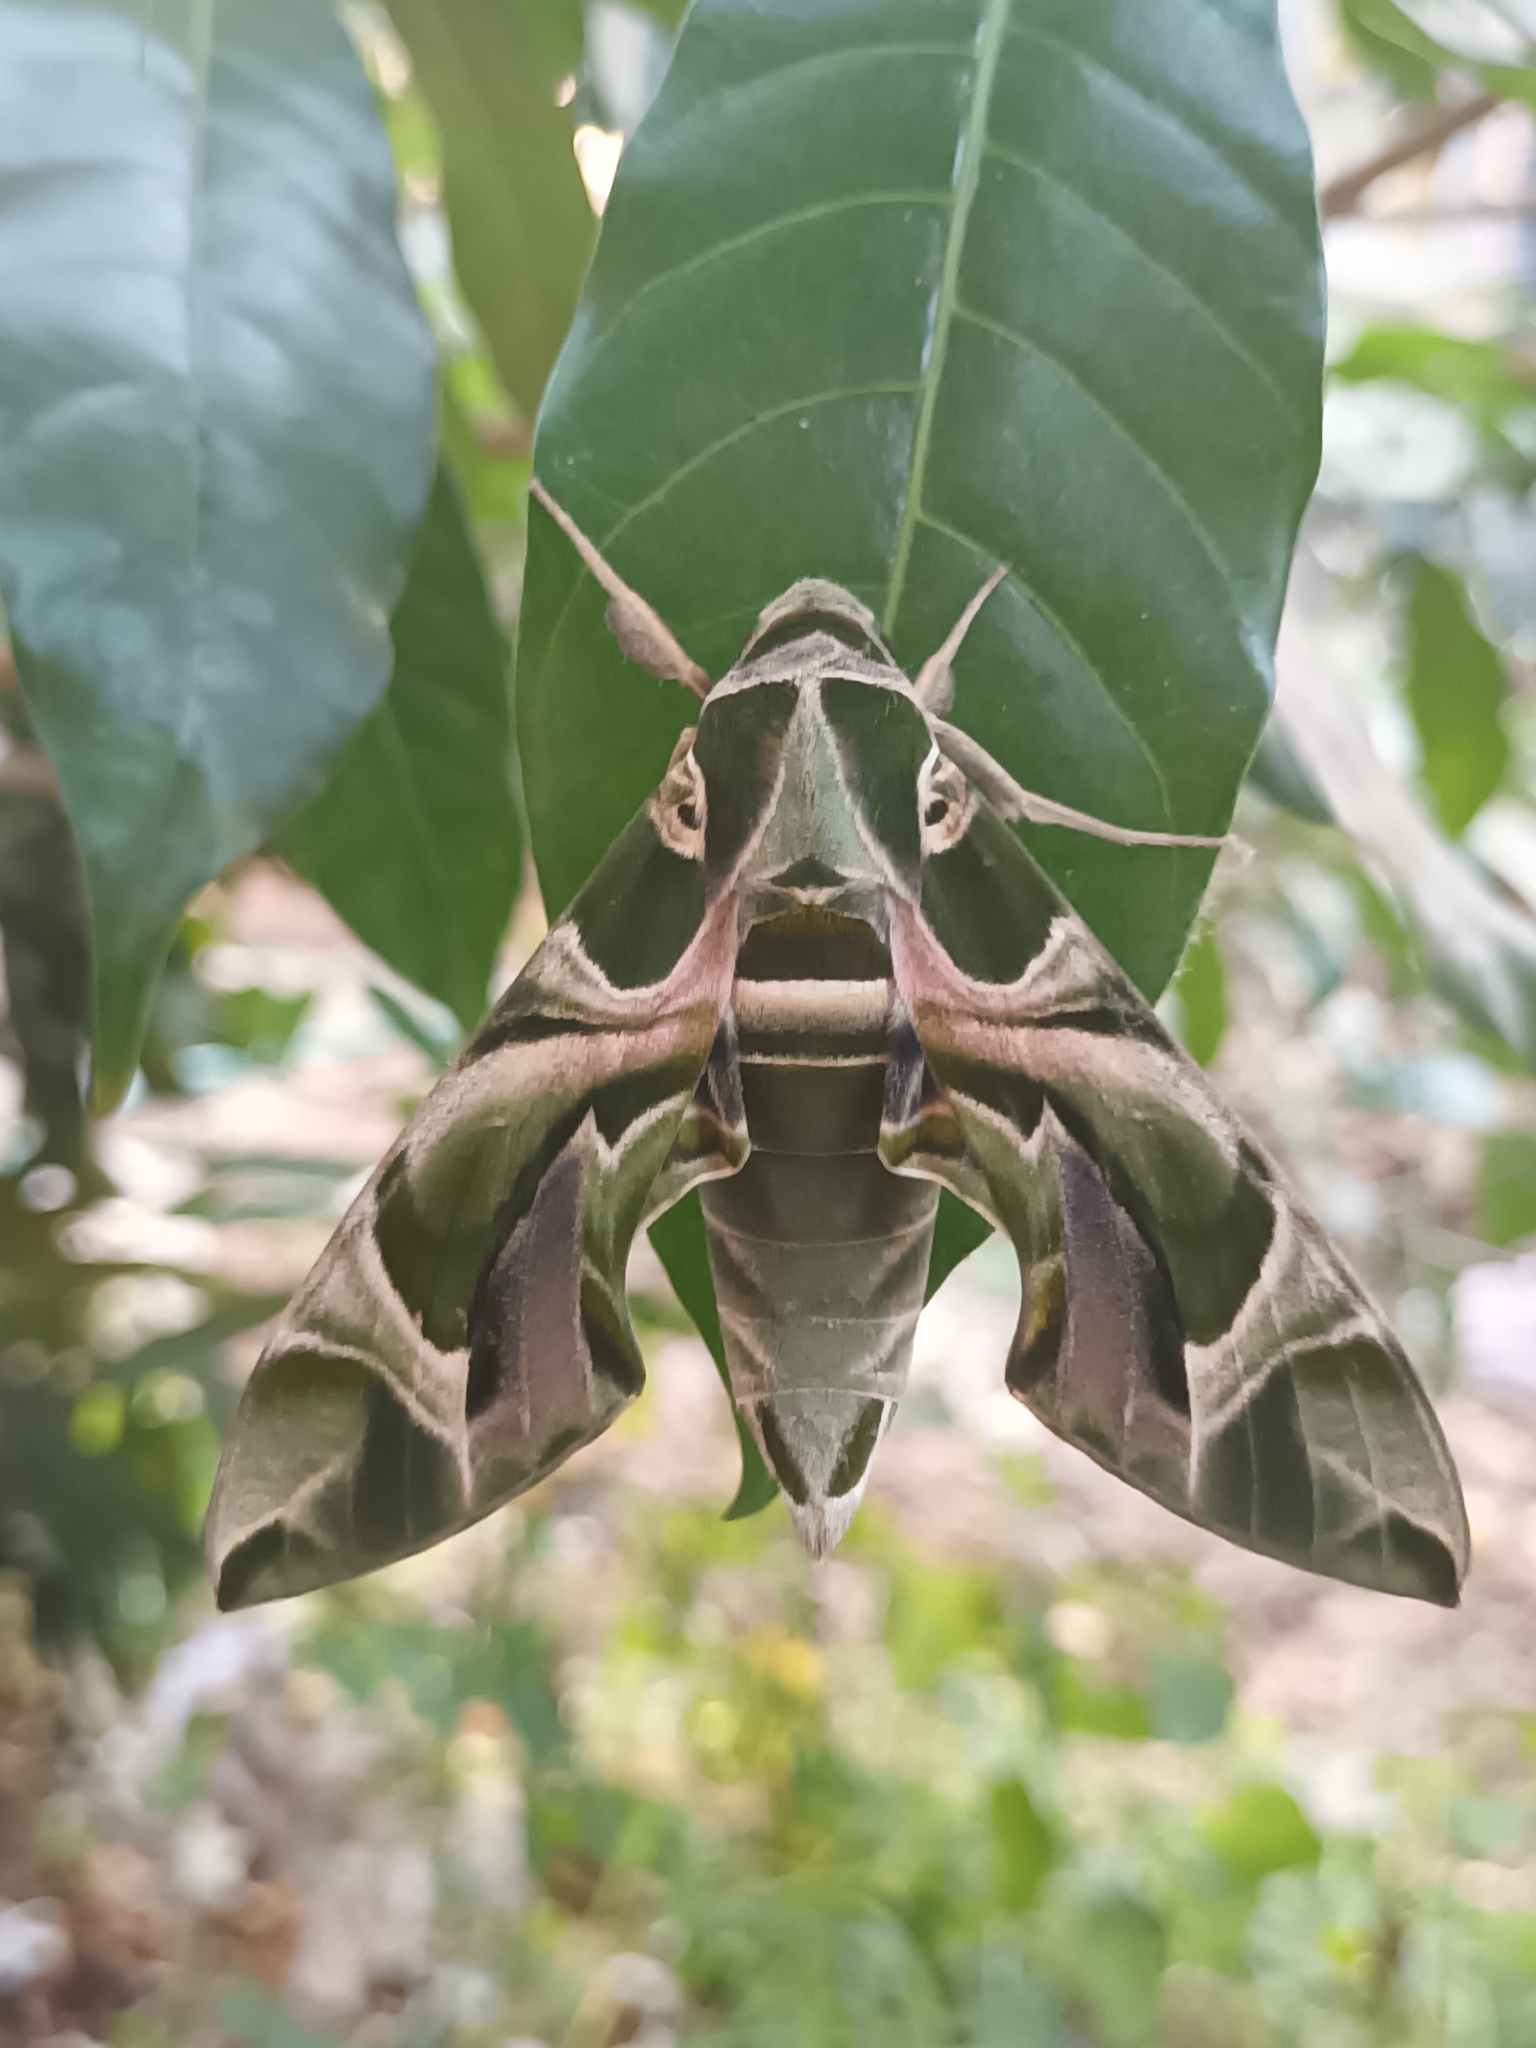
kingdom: Animalia
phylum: Arthropoda
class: Insecta
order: Lepidoptera
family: Sphingidae
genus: Daphnis
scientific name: Daphnis nerii
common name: Oleander hawk-moth
